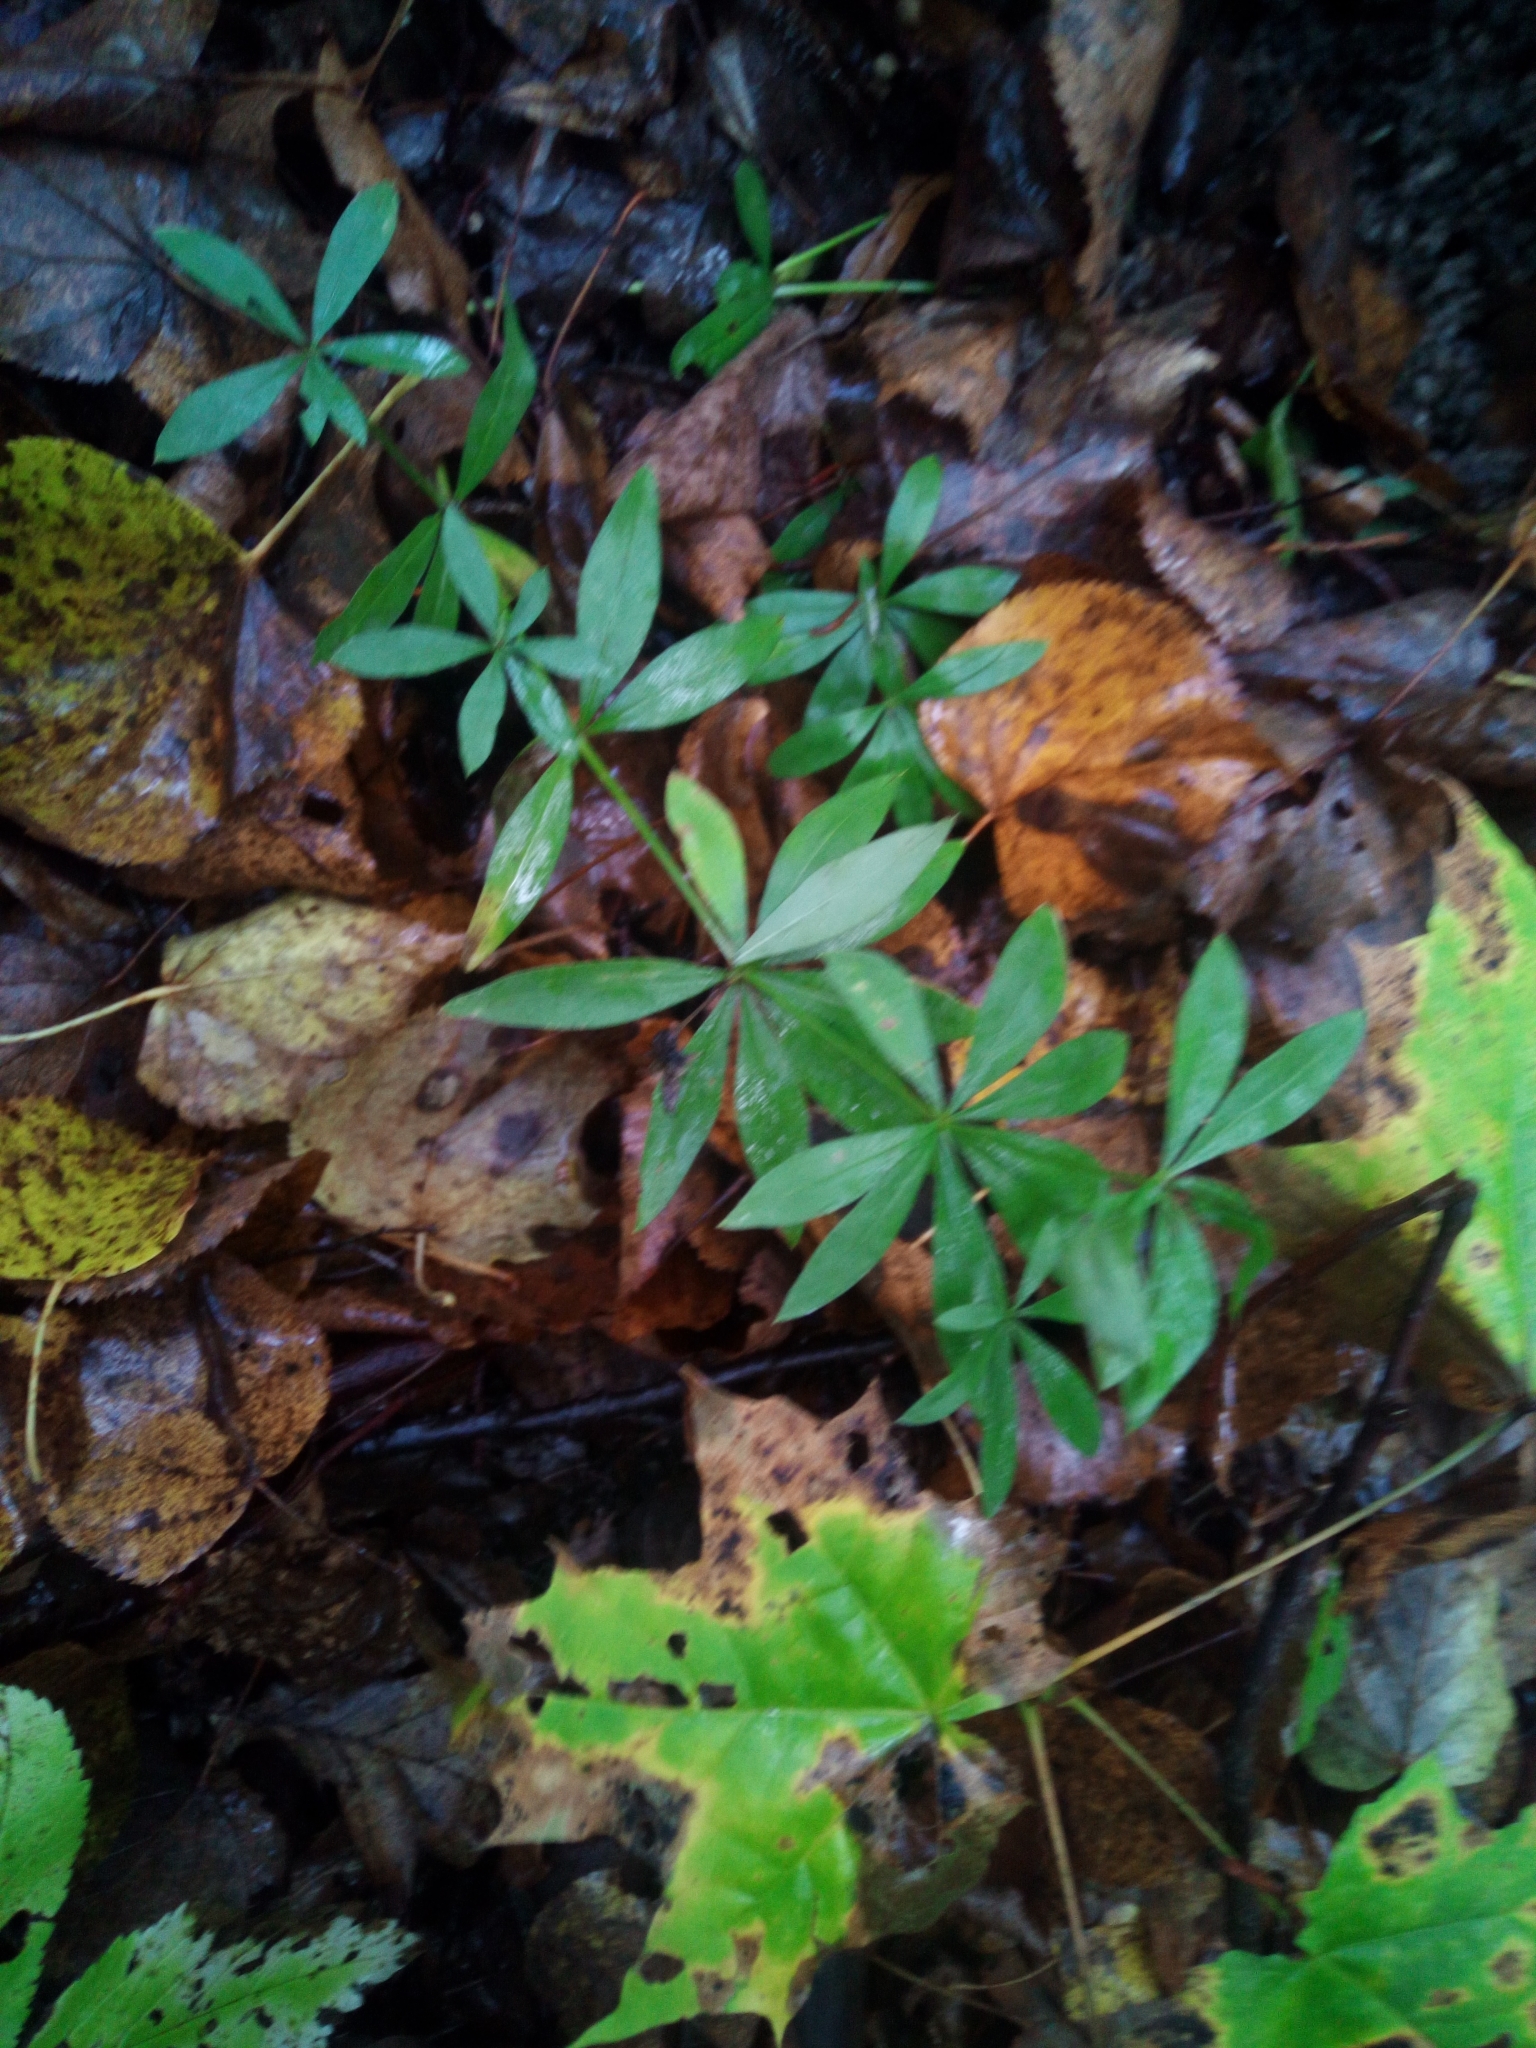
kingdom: Plantae
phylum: Tracheophyta
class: Magnoliopsida
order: Gentianales
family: Rubiaceae
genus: Galium
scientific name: Galium intermedium
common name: Bedstraw
